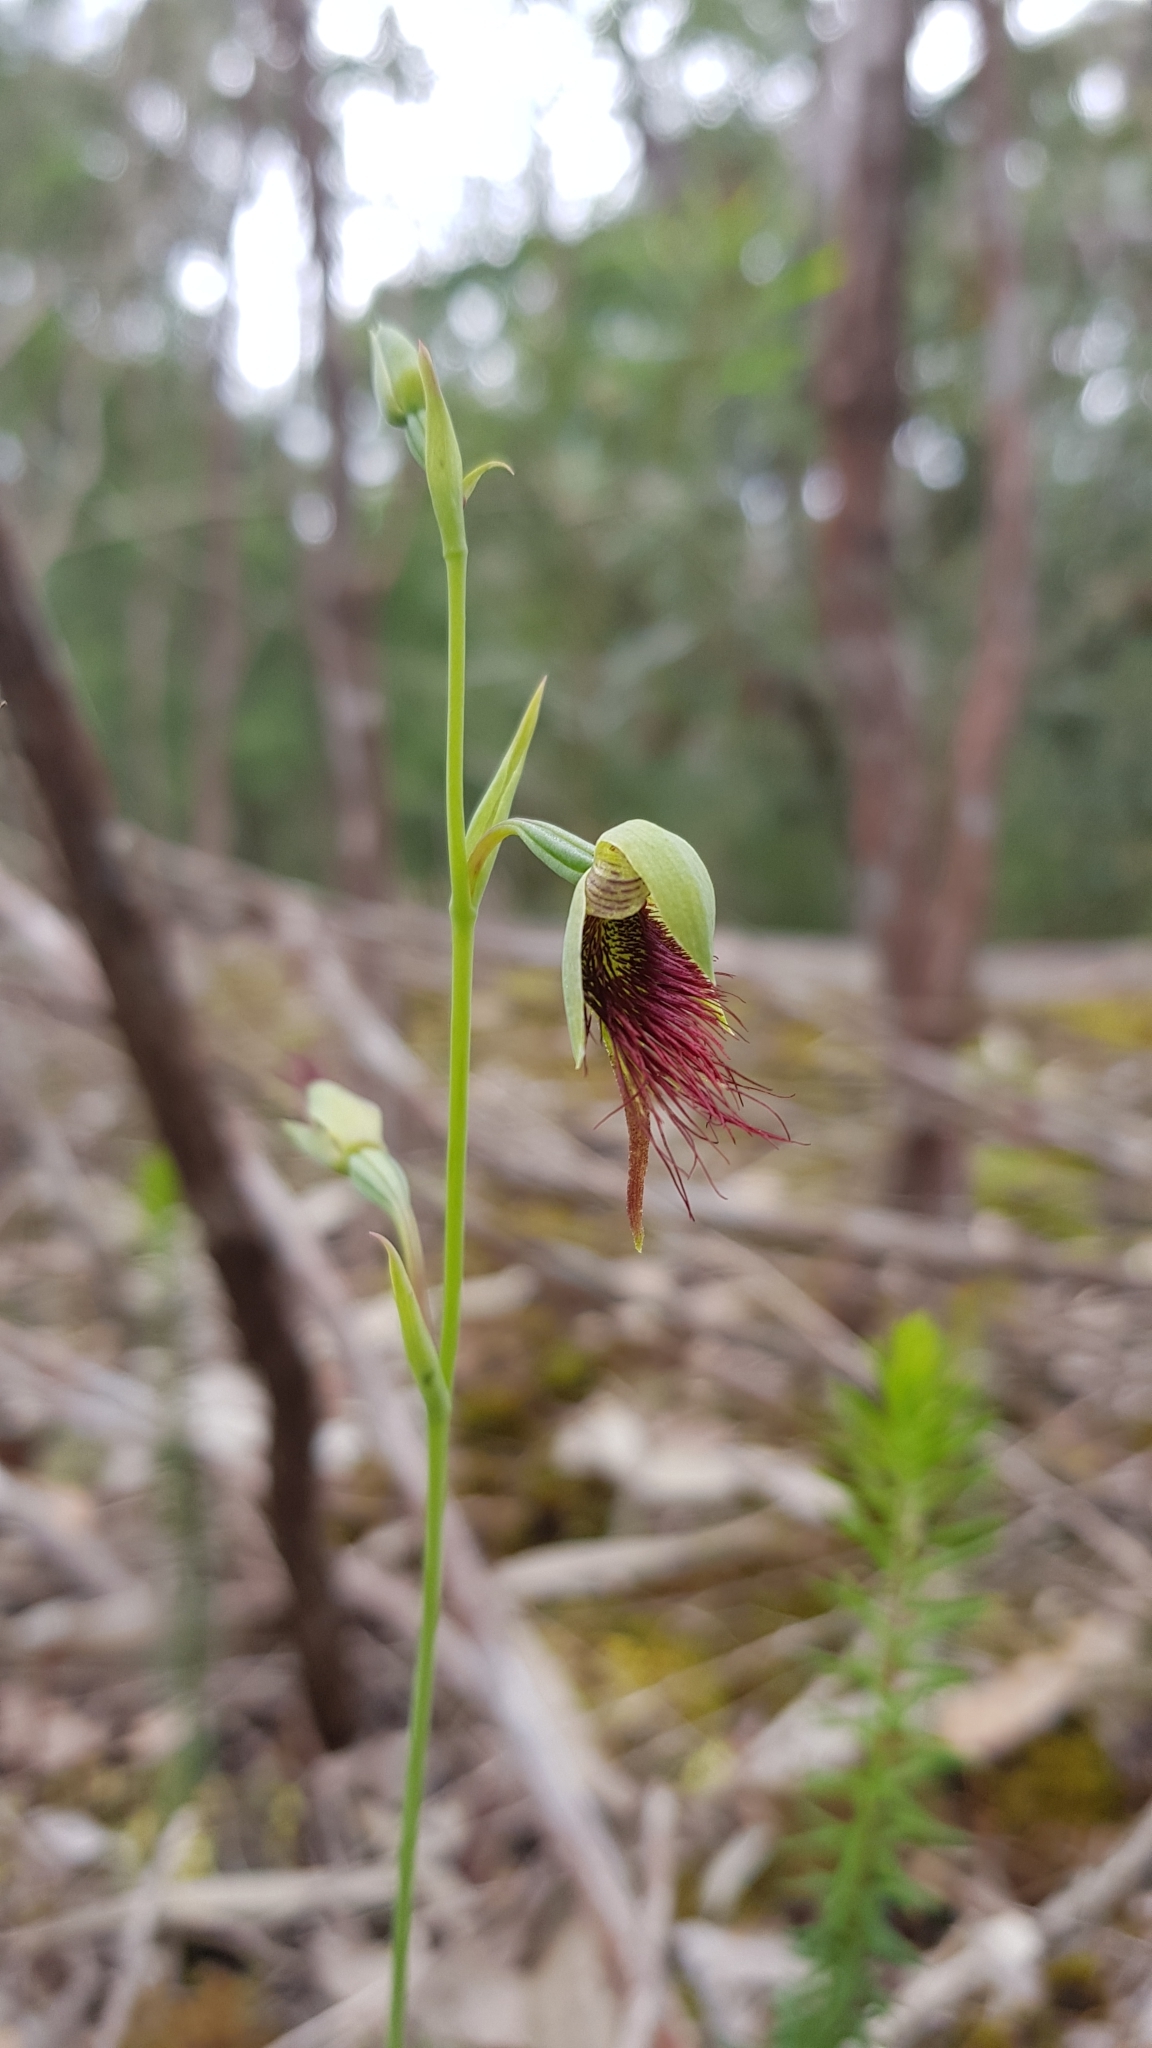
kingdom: Plantae
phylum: Tracheophyta
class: Liliopsida
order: Asparagales
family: Orchidaceae
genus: Calochilus
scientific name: Calochilus paludosus
